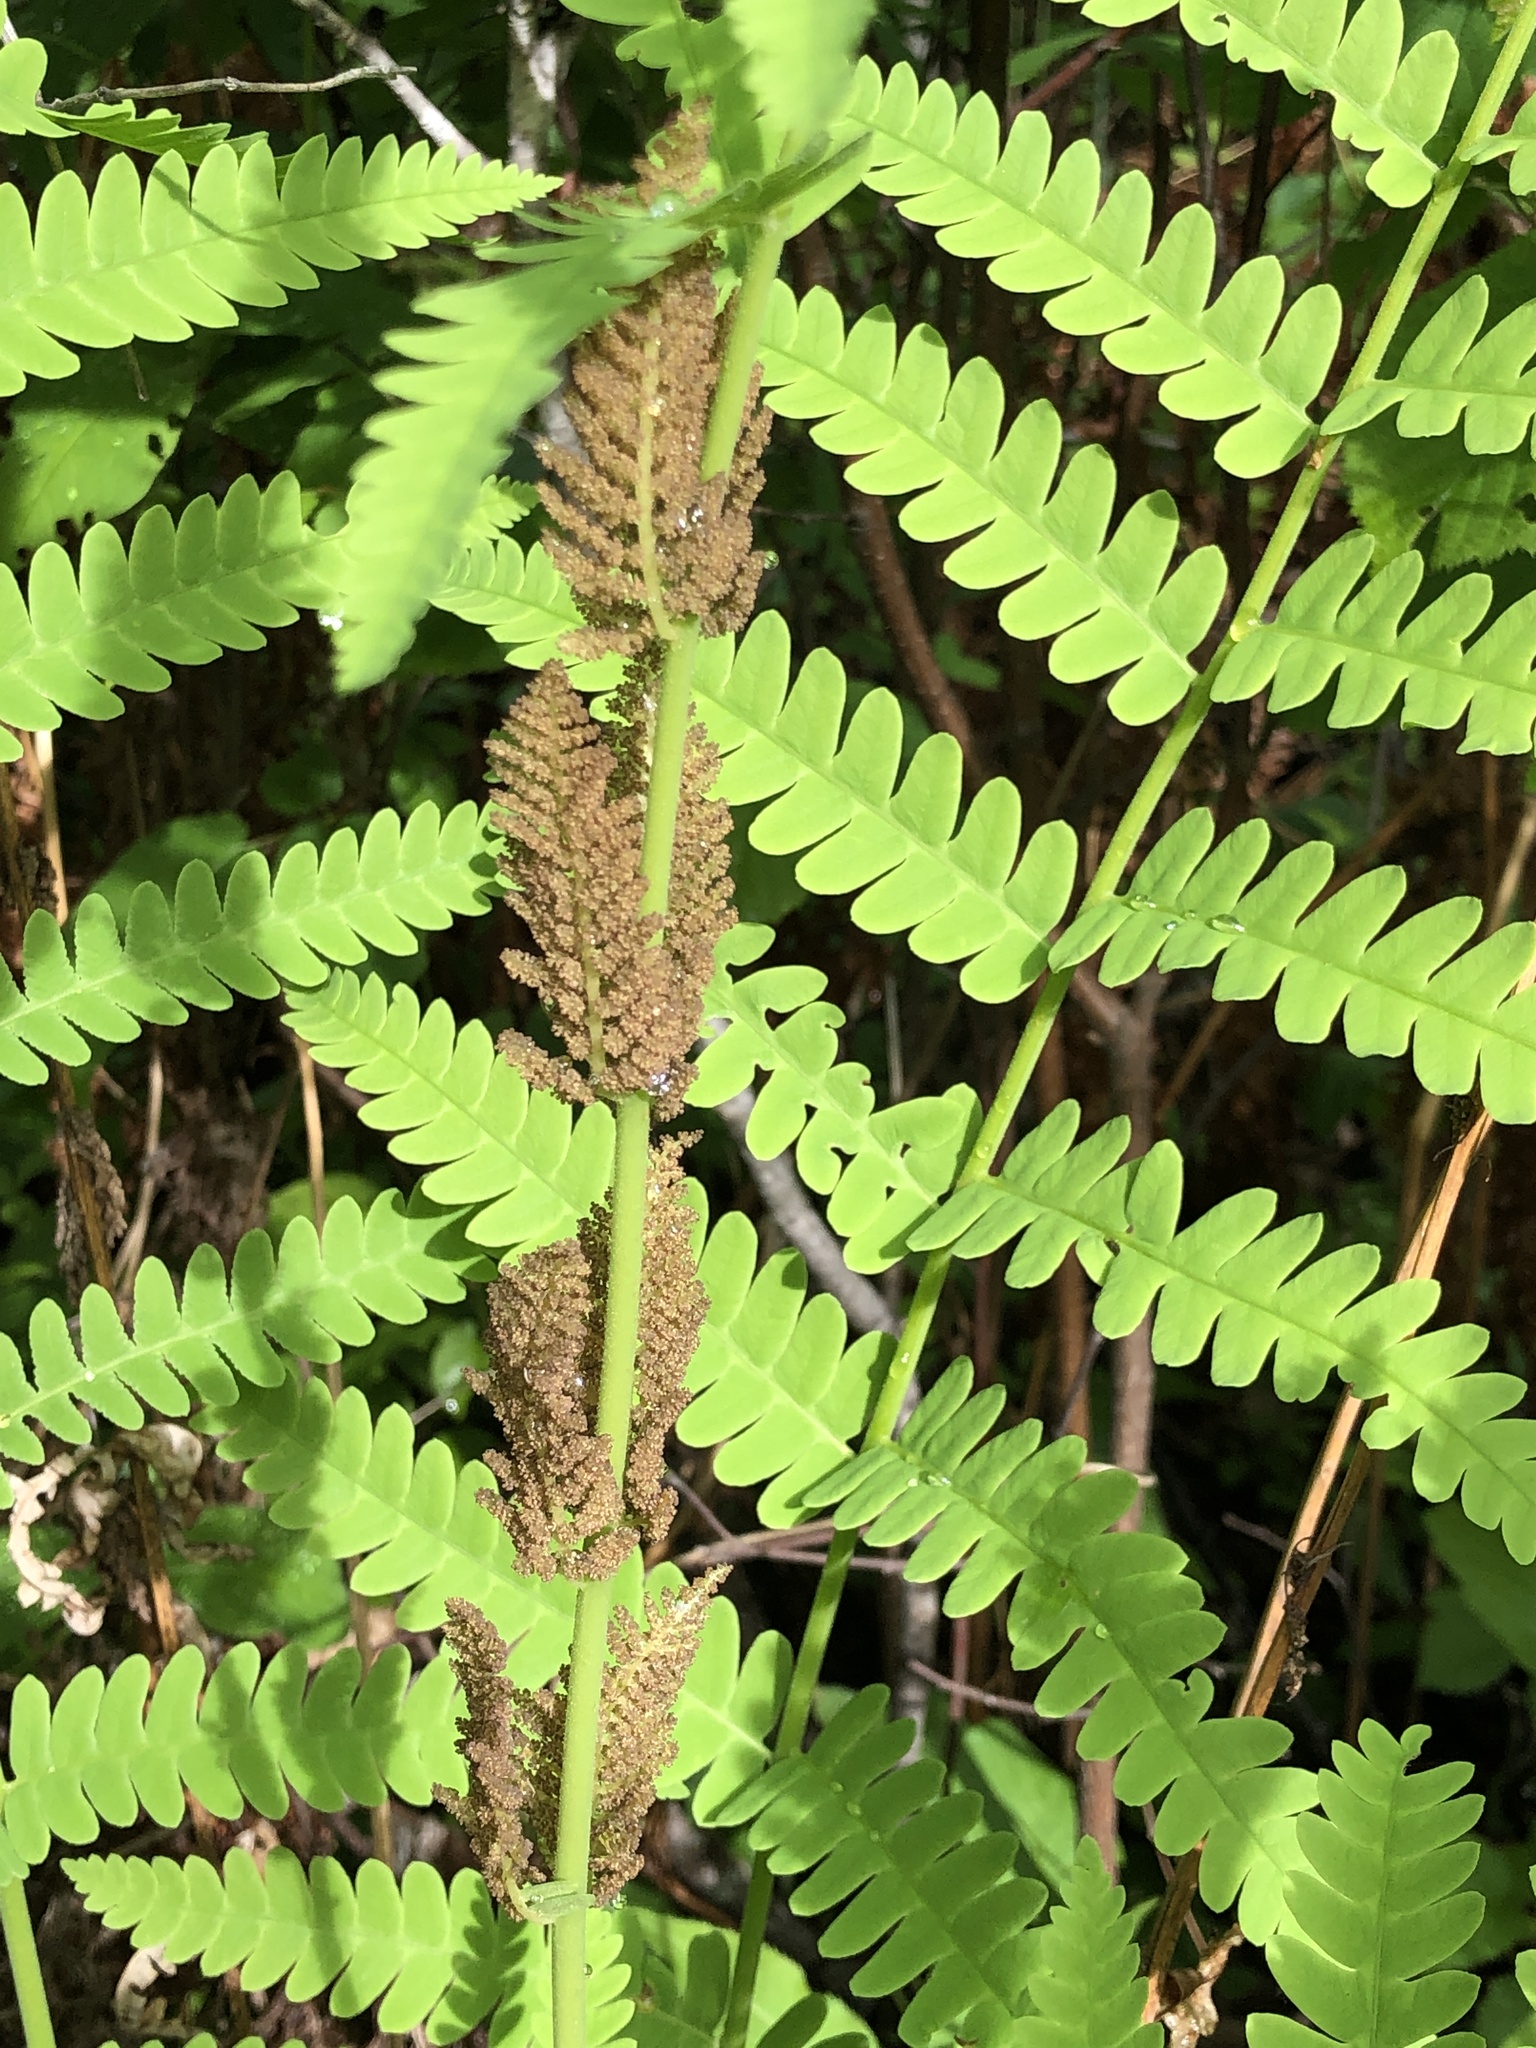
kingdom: Plantae
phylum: Tracheophyta
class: Polypodiopsida
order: Osmundales
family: Osmundaceae
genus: Claytosmunda
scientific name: Claytosmunda claytoniana
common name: Clayton's fern
